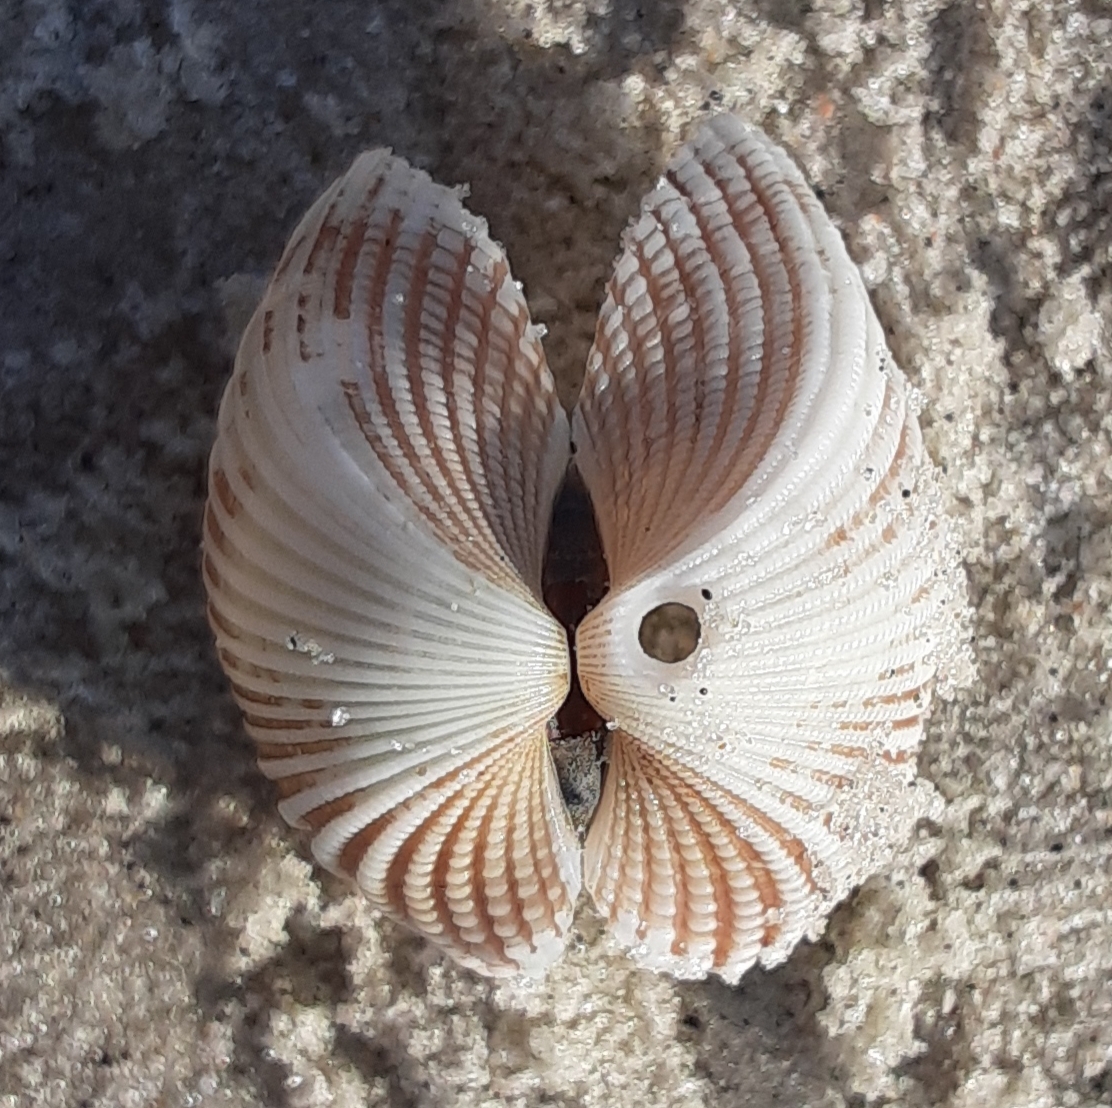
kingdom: Animalia
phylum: Mollusca
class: Bivalvia
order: Arcida
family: Arcidae
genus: Anadara
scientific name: Anadara brasiliana
